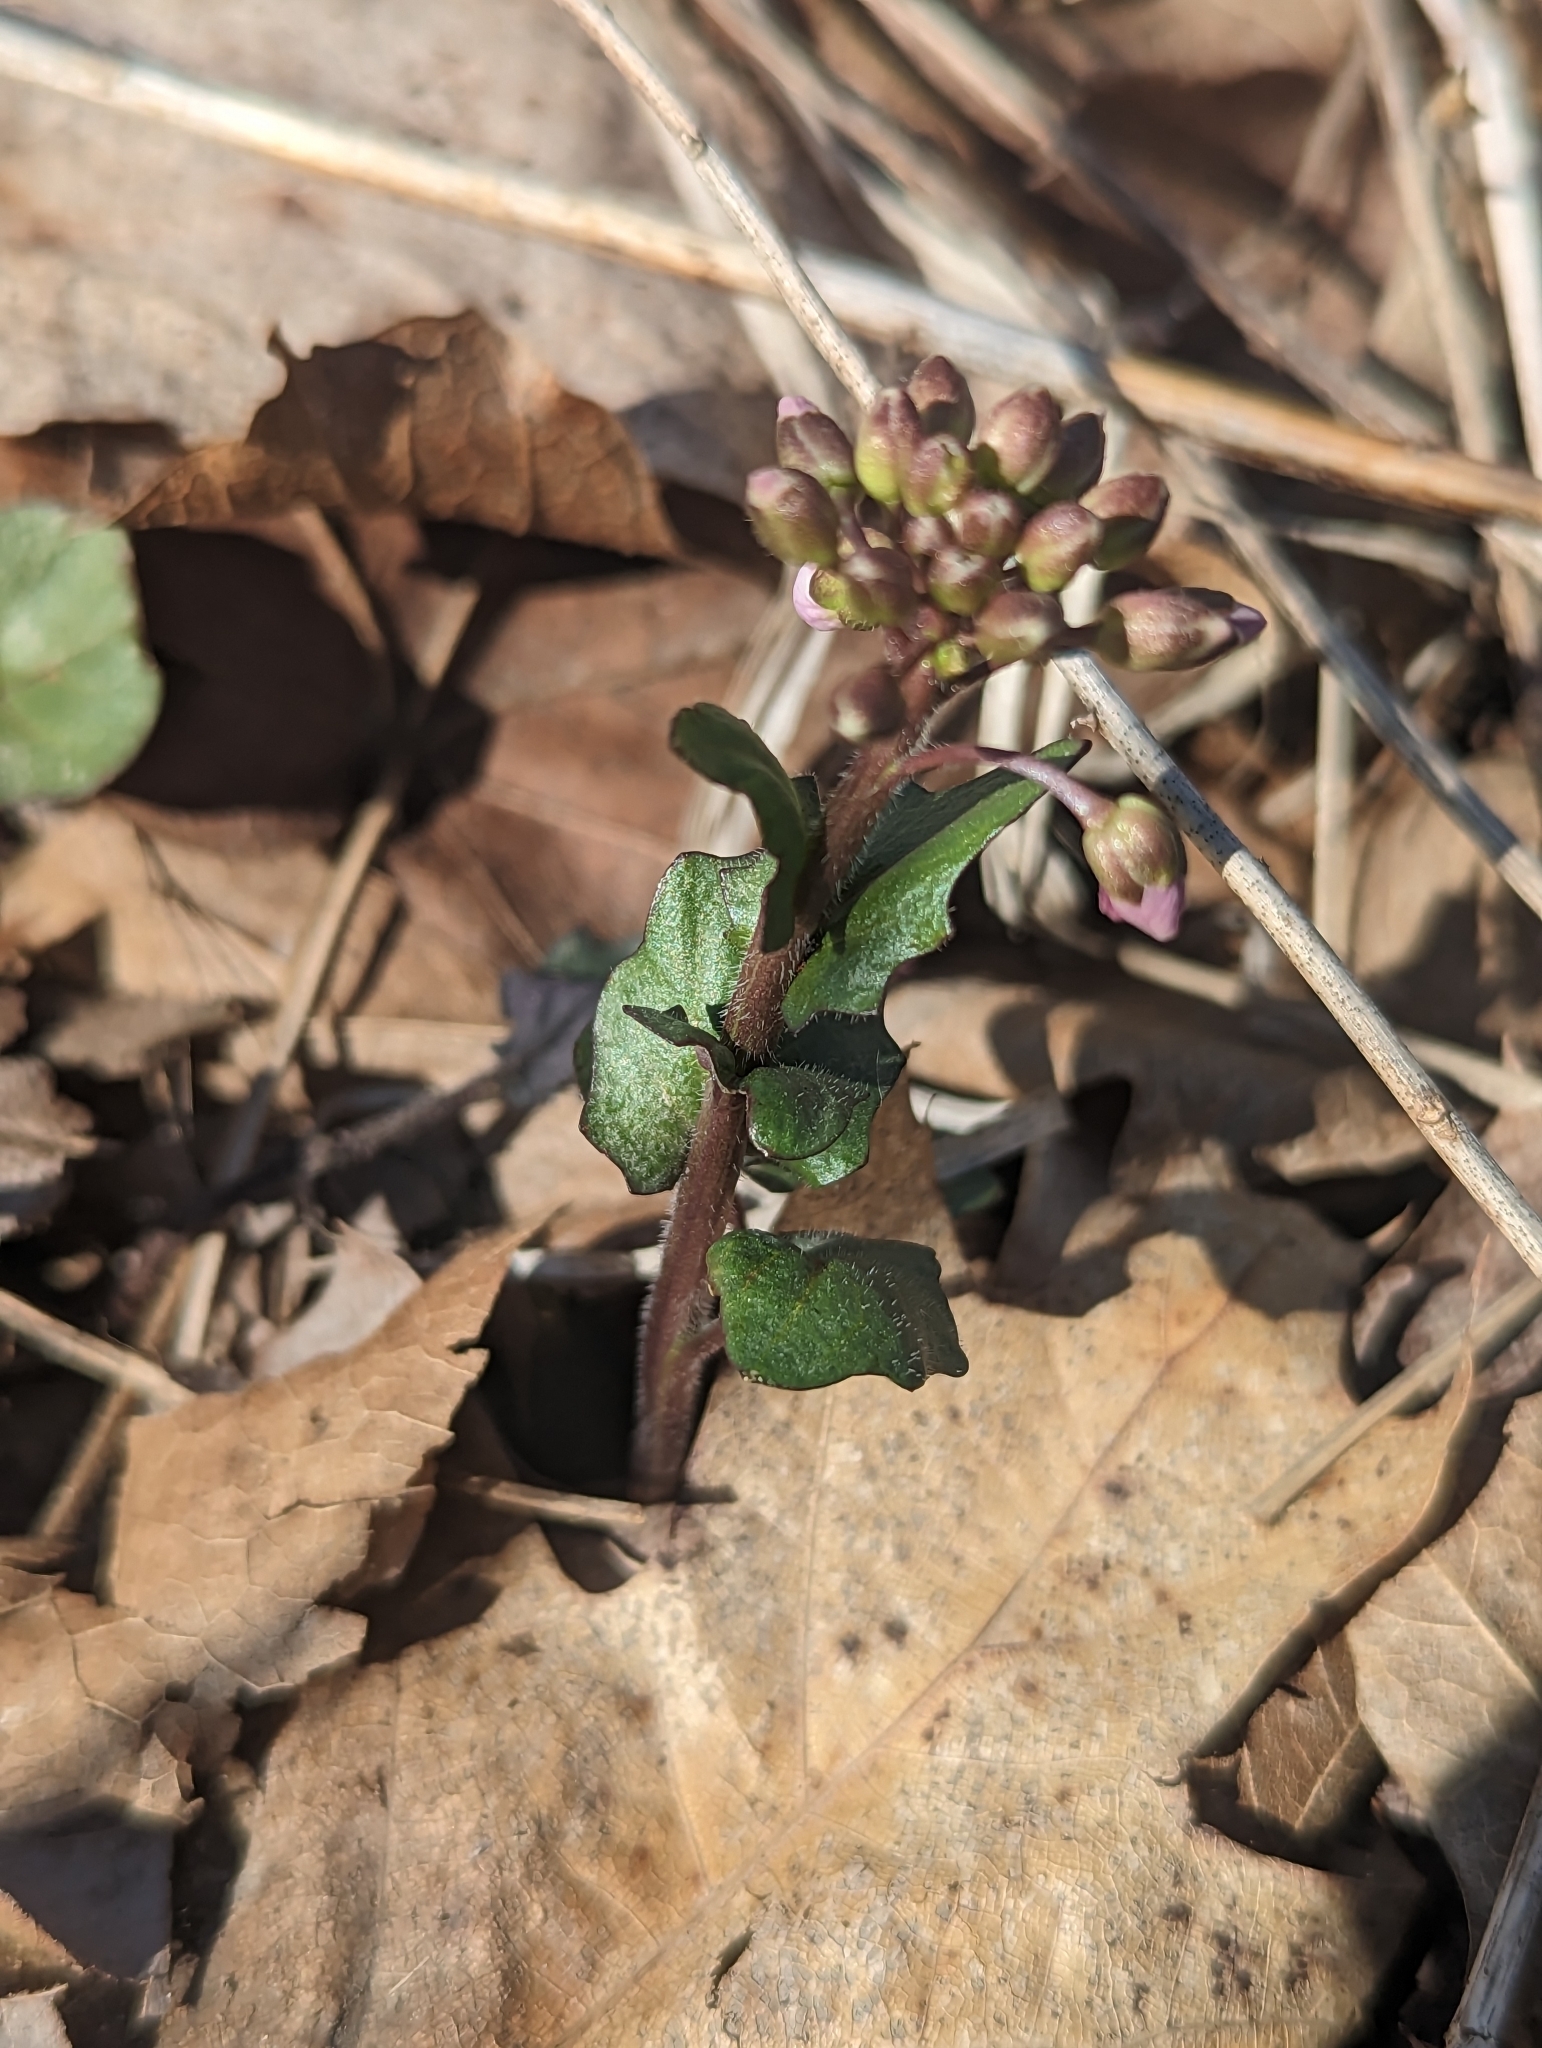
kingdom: Plantae
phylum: Tracheophyta
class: Magnoliopsida
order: Brassicales
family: Brassicaceae
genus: Cardamine
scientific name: Cardamine douglassii
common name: Purple cress
